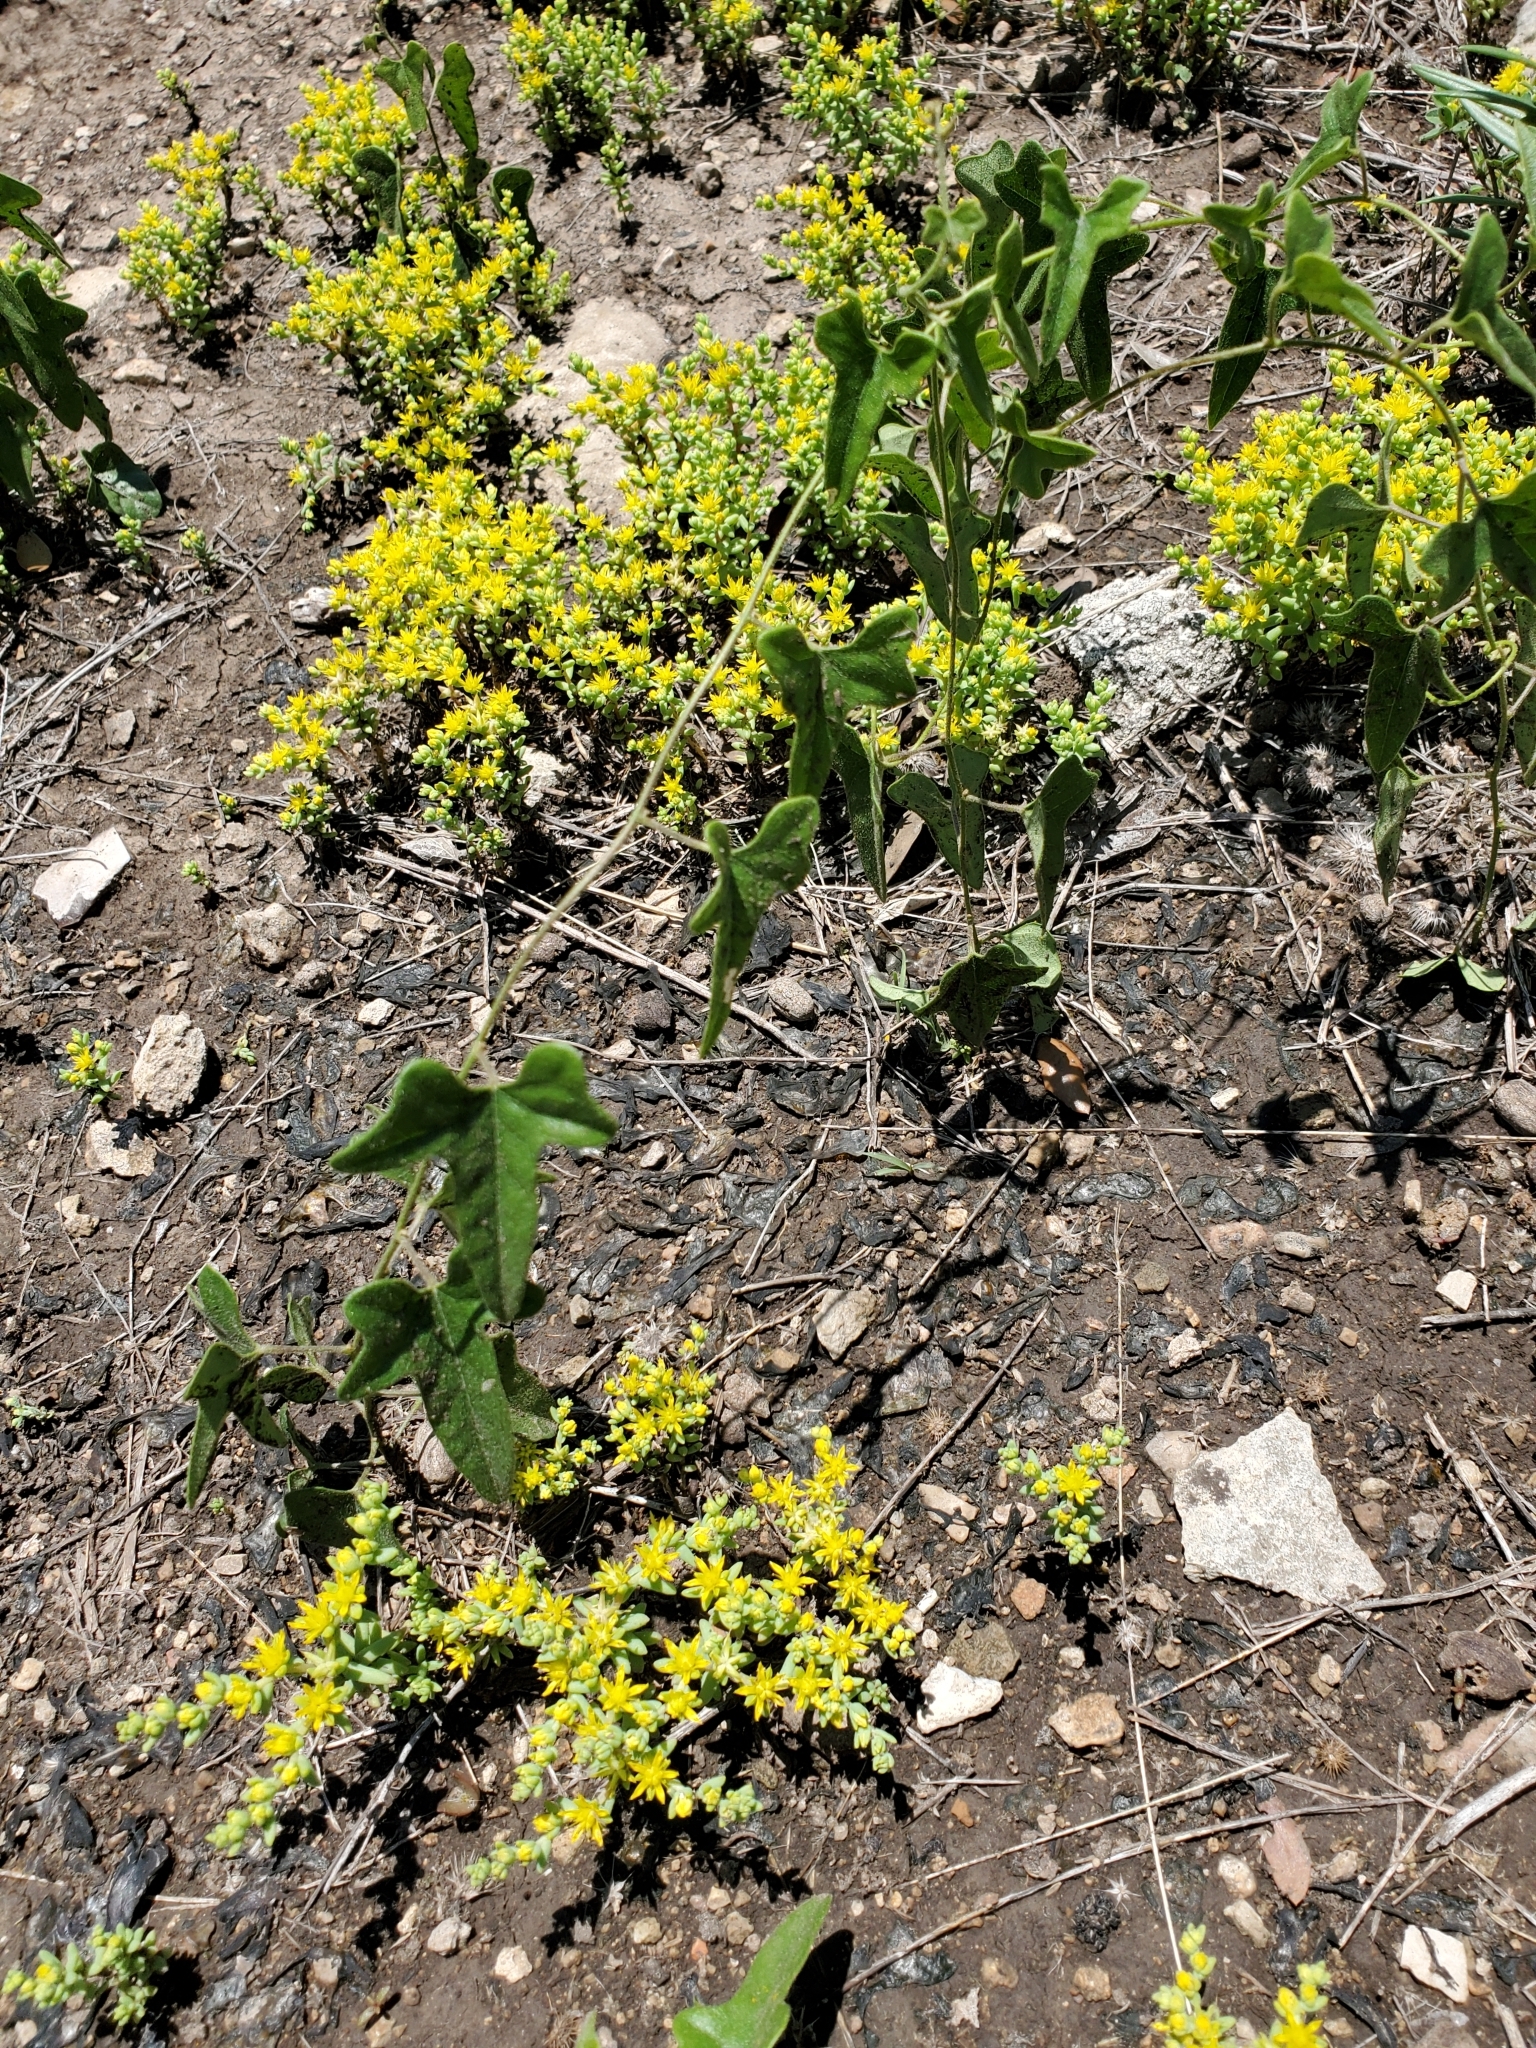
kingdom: Plantae
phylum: Tracheophyta
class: Magnoliopsida
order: Ranunculales
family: Menispermaceae
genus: Cocculus
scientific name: Cocculus carolinus
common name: Carolina moonseed
